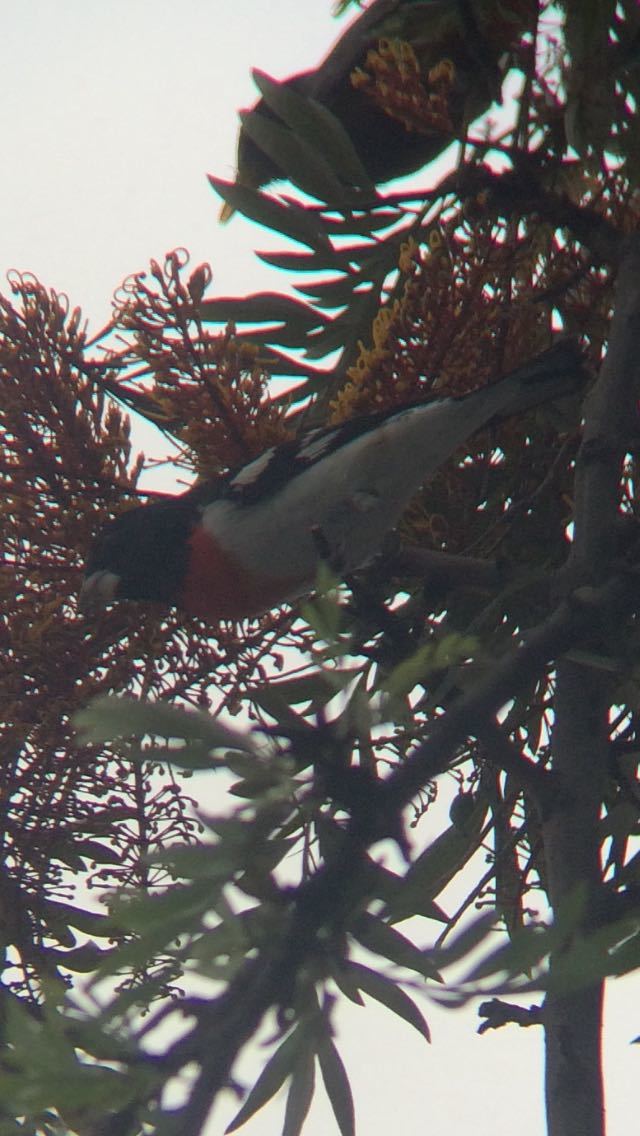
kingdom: Animalia
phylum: Chordata
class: Aves
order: Passeriformes
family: Cardinalidae
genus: Pheucticus
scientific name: Pheucticus ludovicianus
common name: Rose-breasted grosbeak
